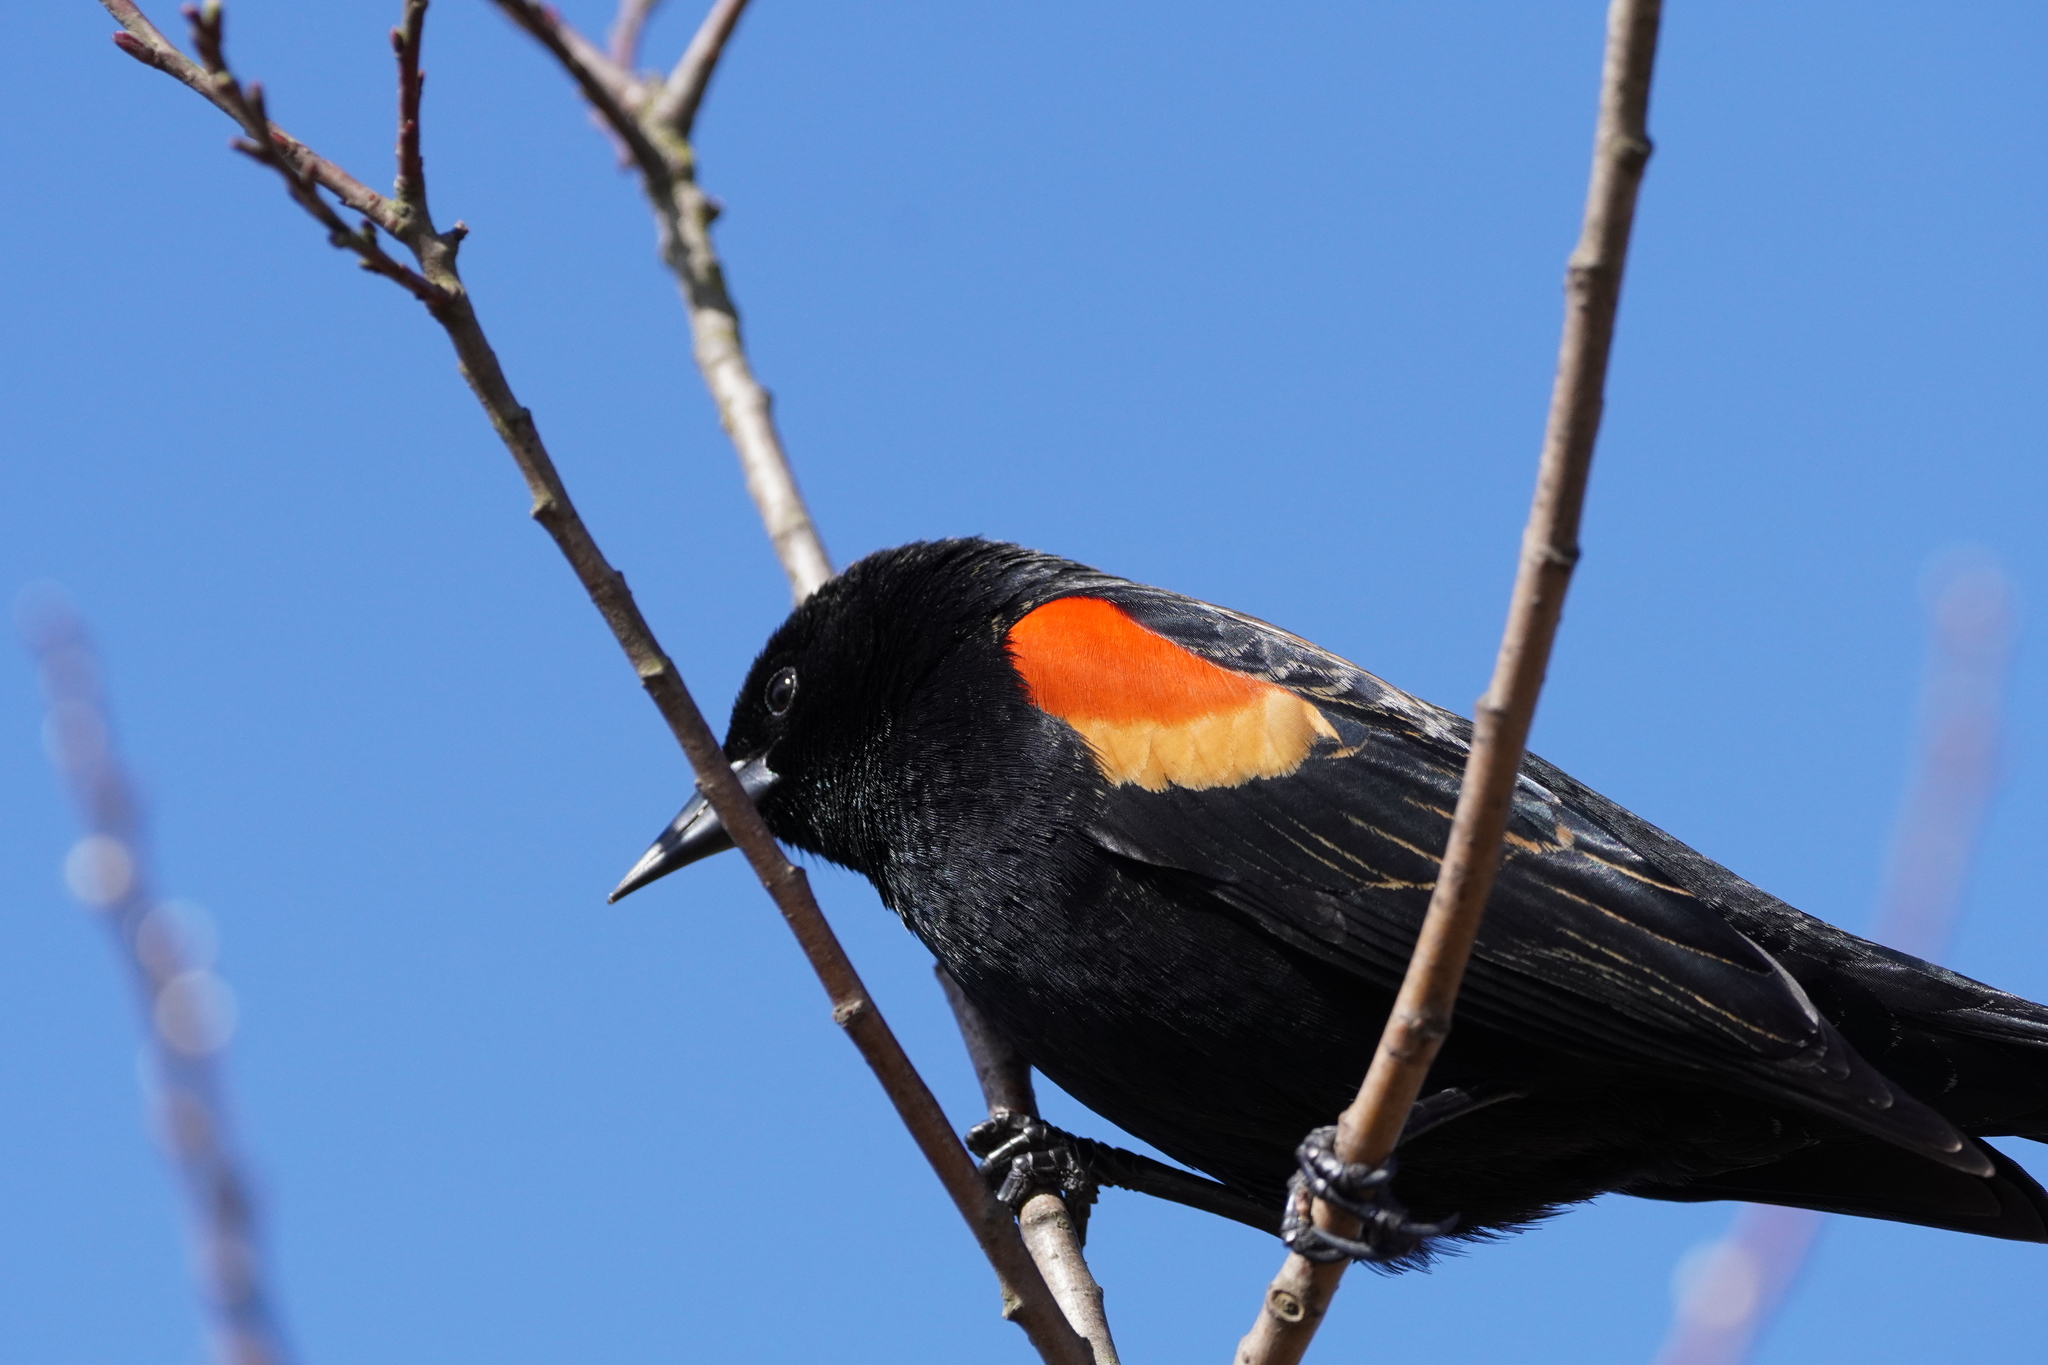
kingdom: Animalia
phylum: Chordata
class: Aves
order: Passeriformes
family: Icteridae
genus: Agelaius
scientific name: Agelaius phoeniceus
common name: Red-winged blackbird
